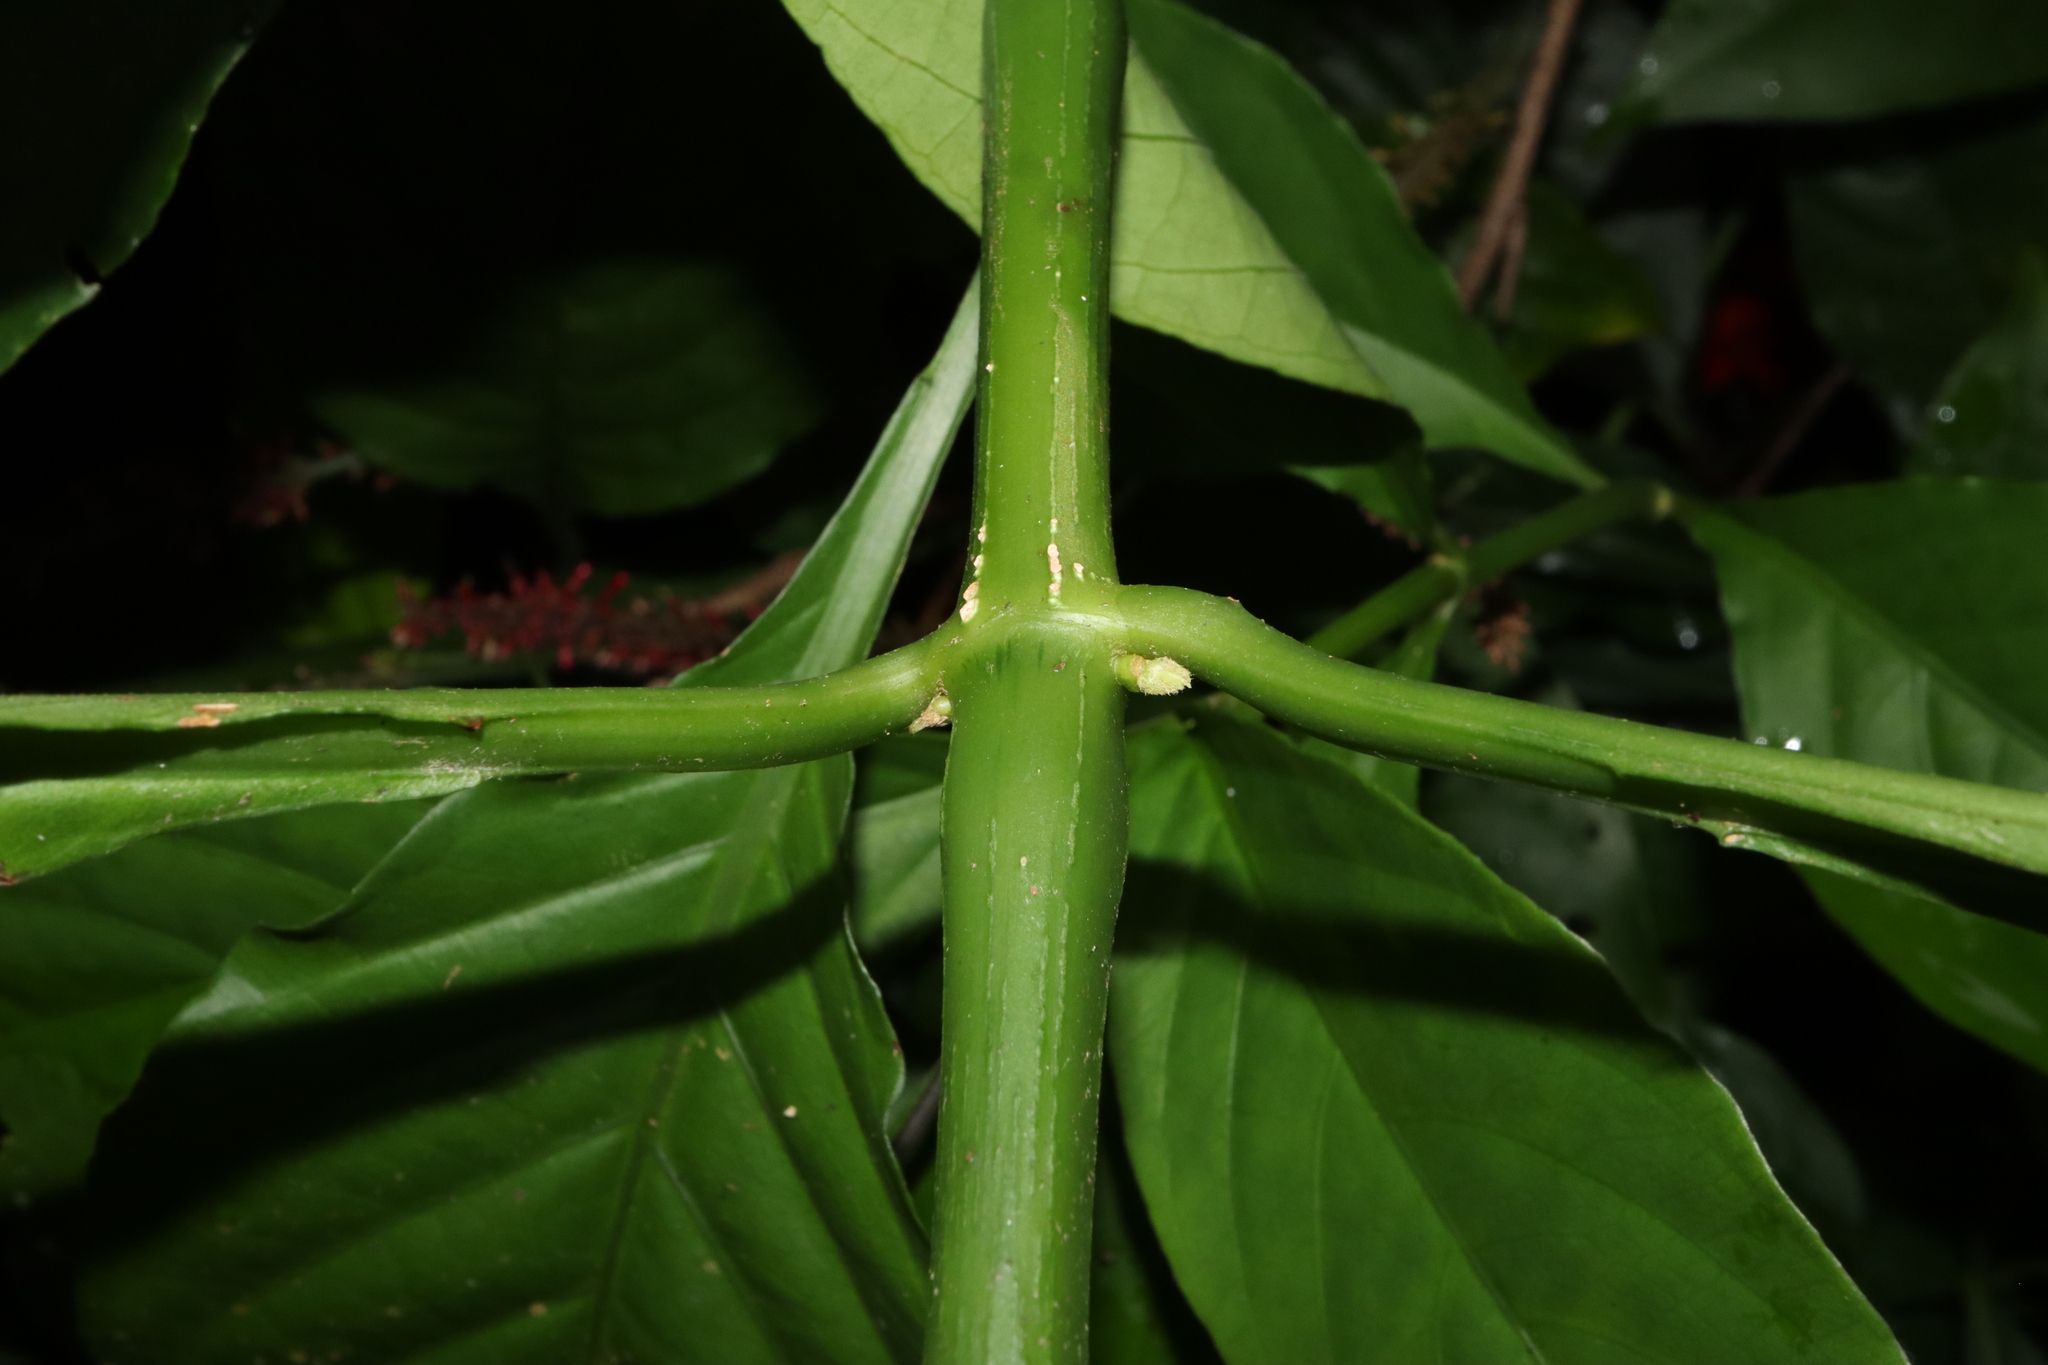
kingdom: Plantae
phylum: Tracheophyta
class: Magnoliopsida
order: Lamiales
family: Acanthaceae
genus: Odontonema
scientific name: Odontonema tubaeforme
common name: Firespike
